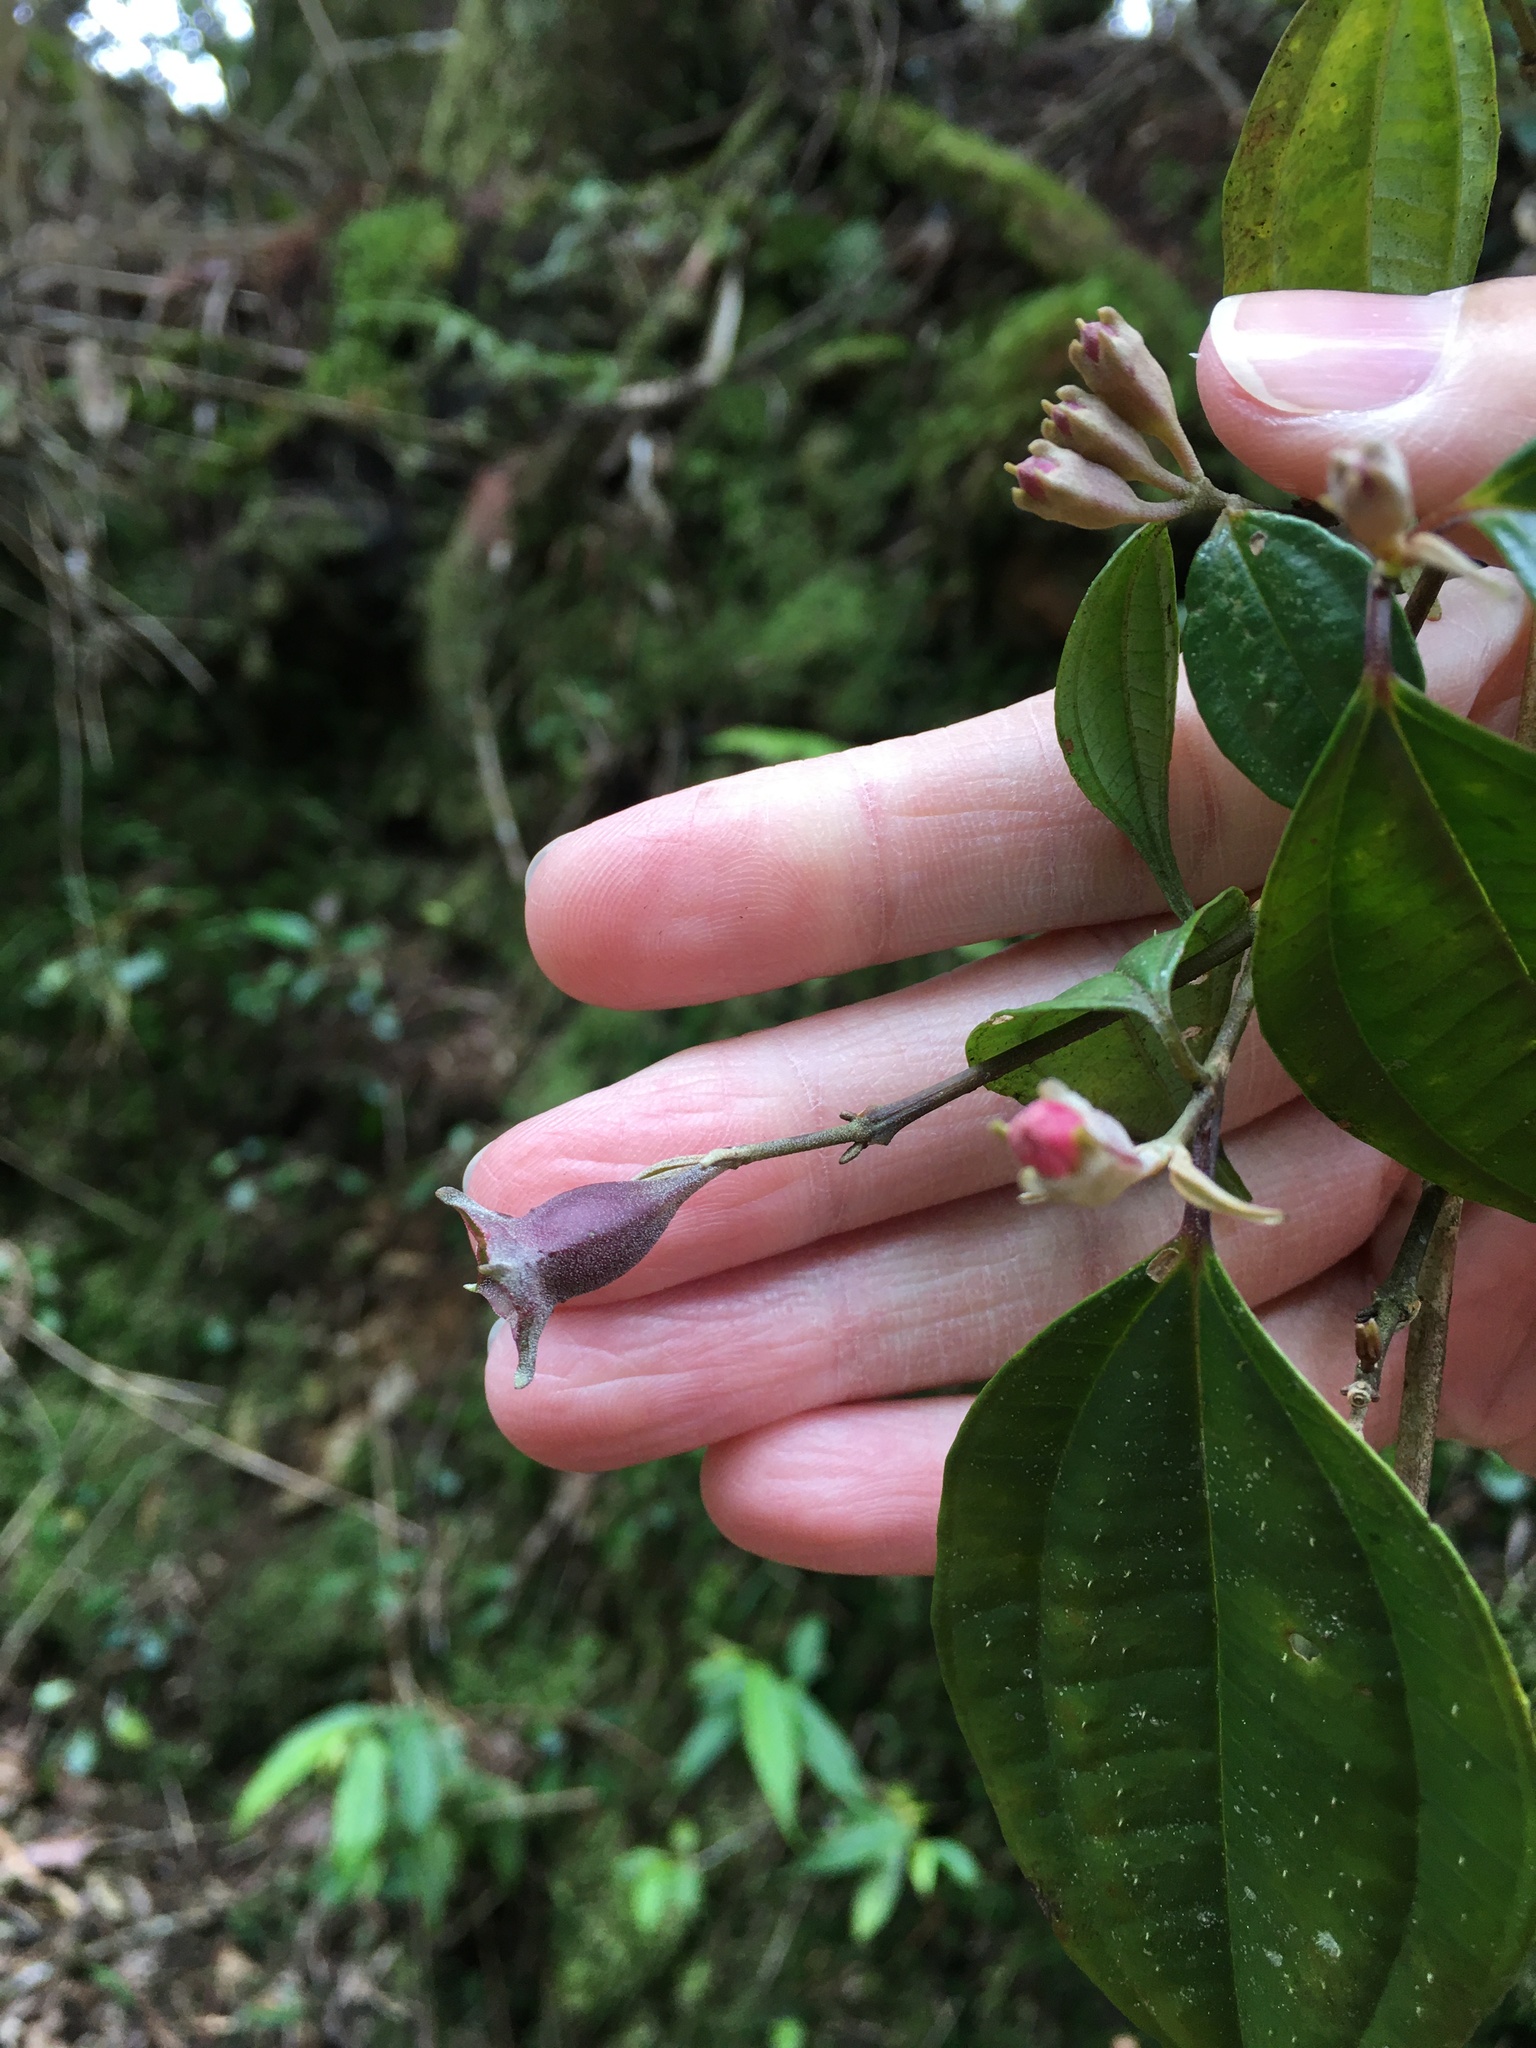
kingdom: Plantae
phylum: Tracheophyta
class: Magnoliopsida
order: Myrtales
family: Melastomataceae
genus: Barthea
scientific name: Barthea barthei
